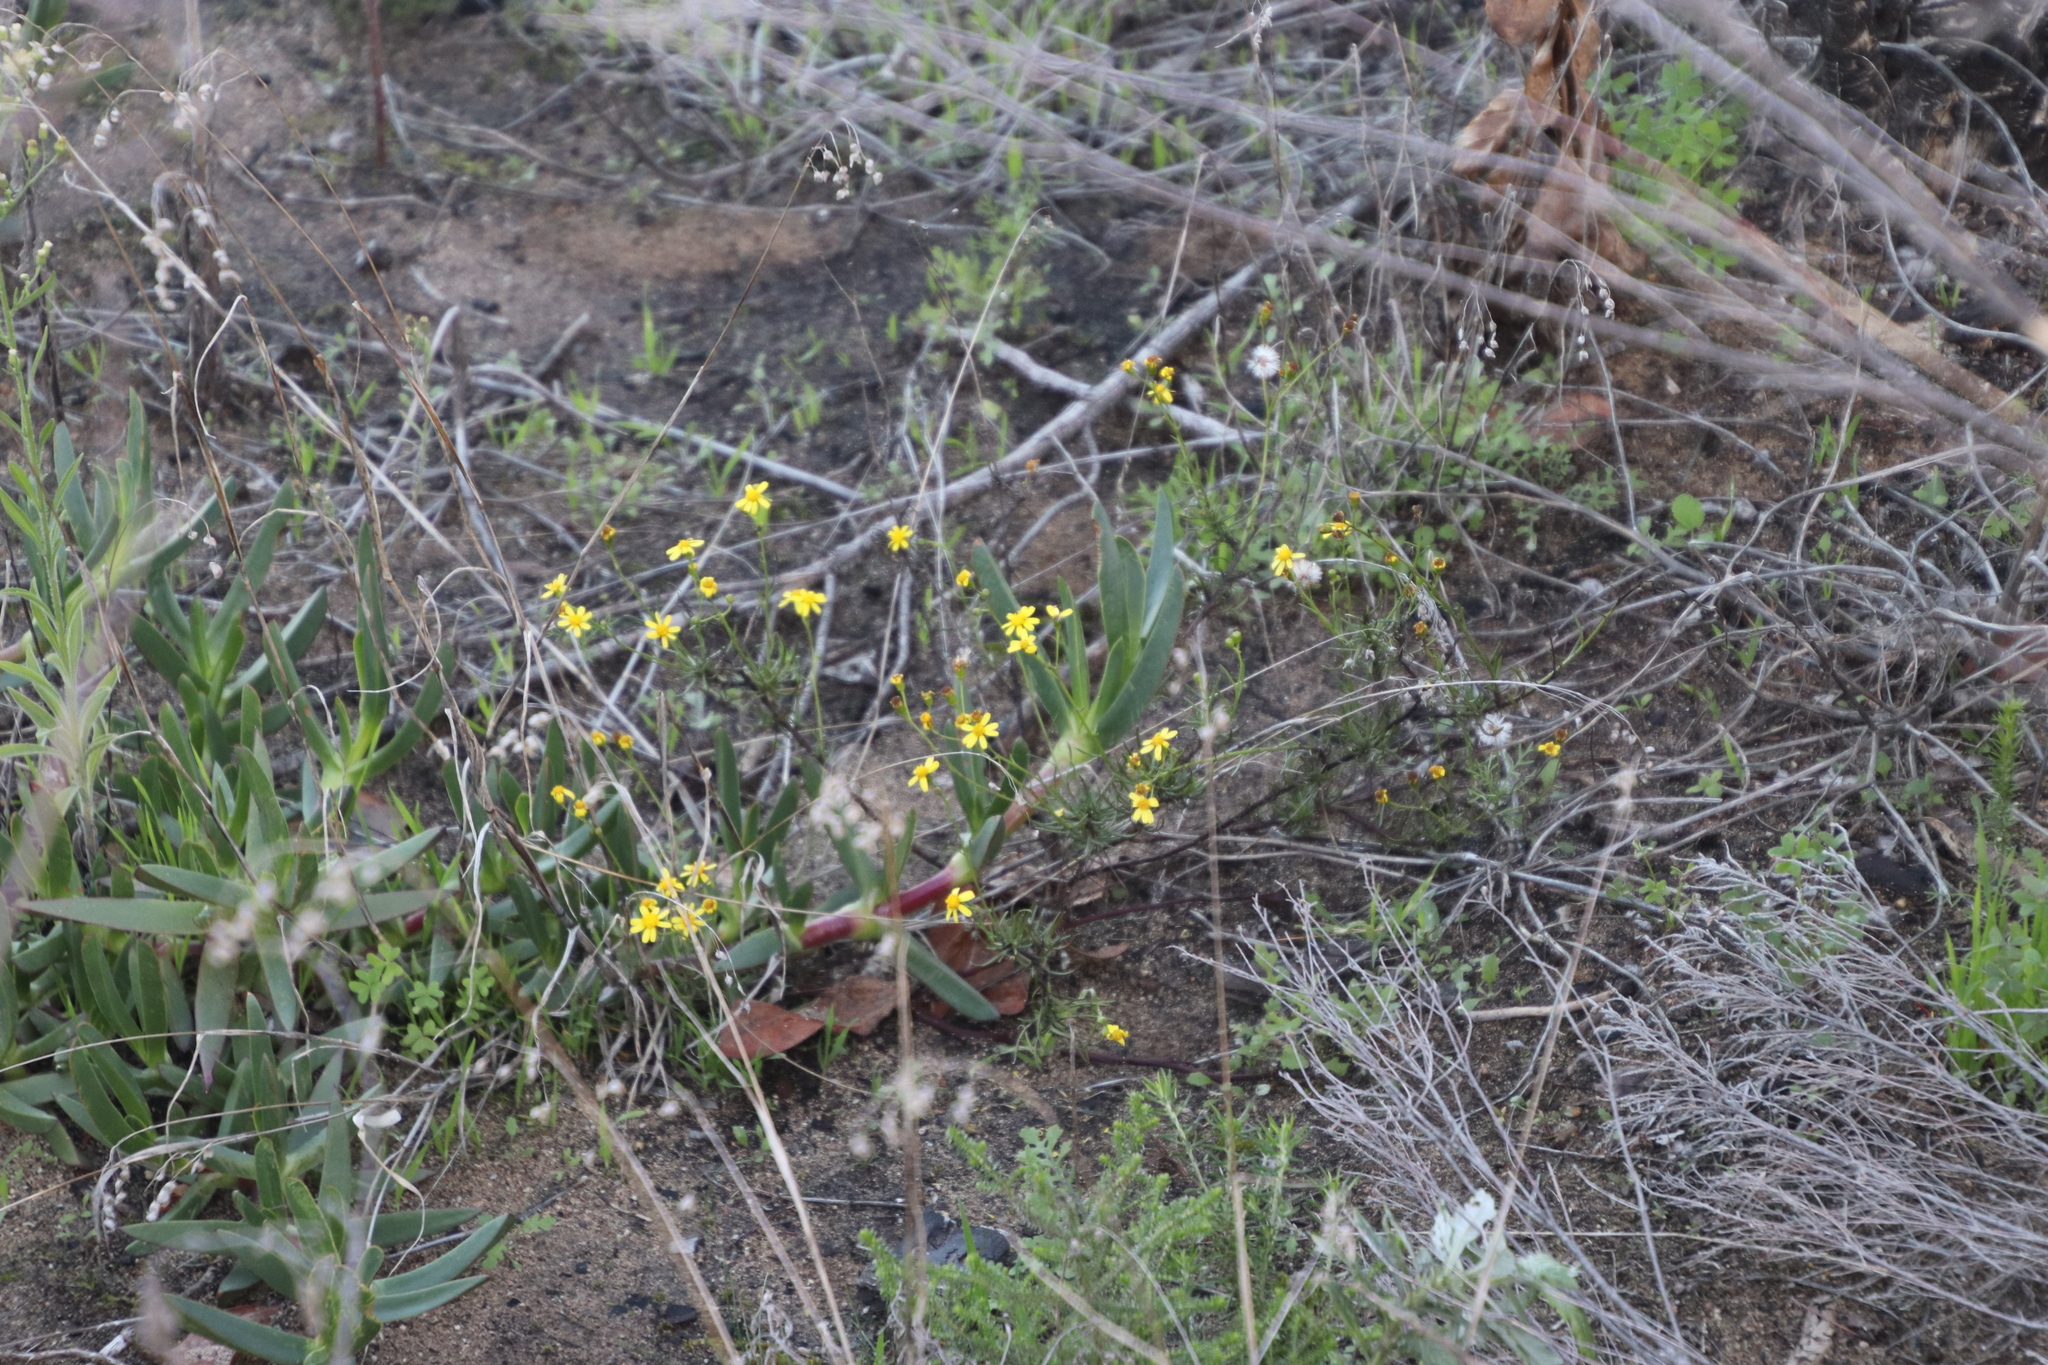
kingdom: Plantae
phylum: Tracheophyta
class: Magnoliopsida
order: Asterales
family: Asteraceae
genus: Senecio
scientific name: Senecio burchellii
